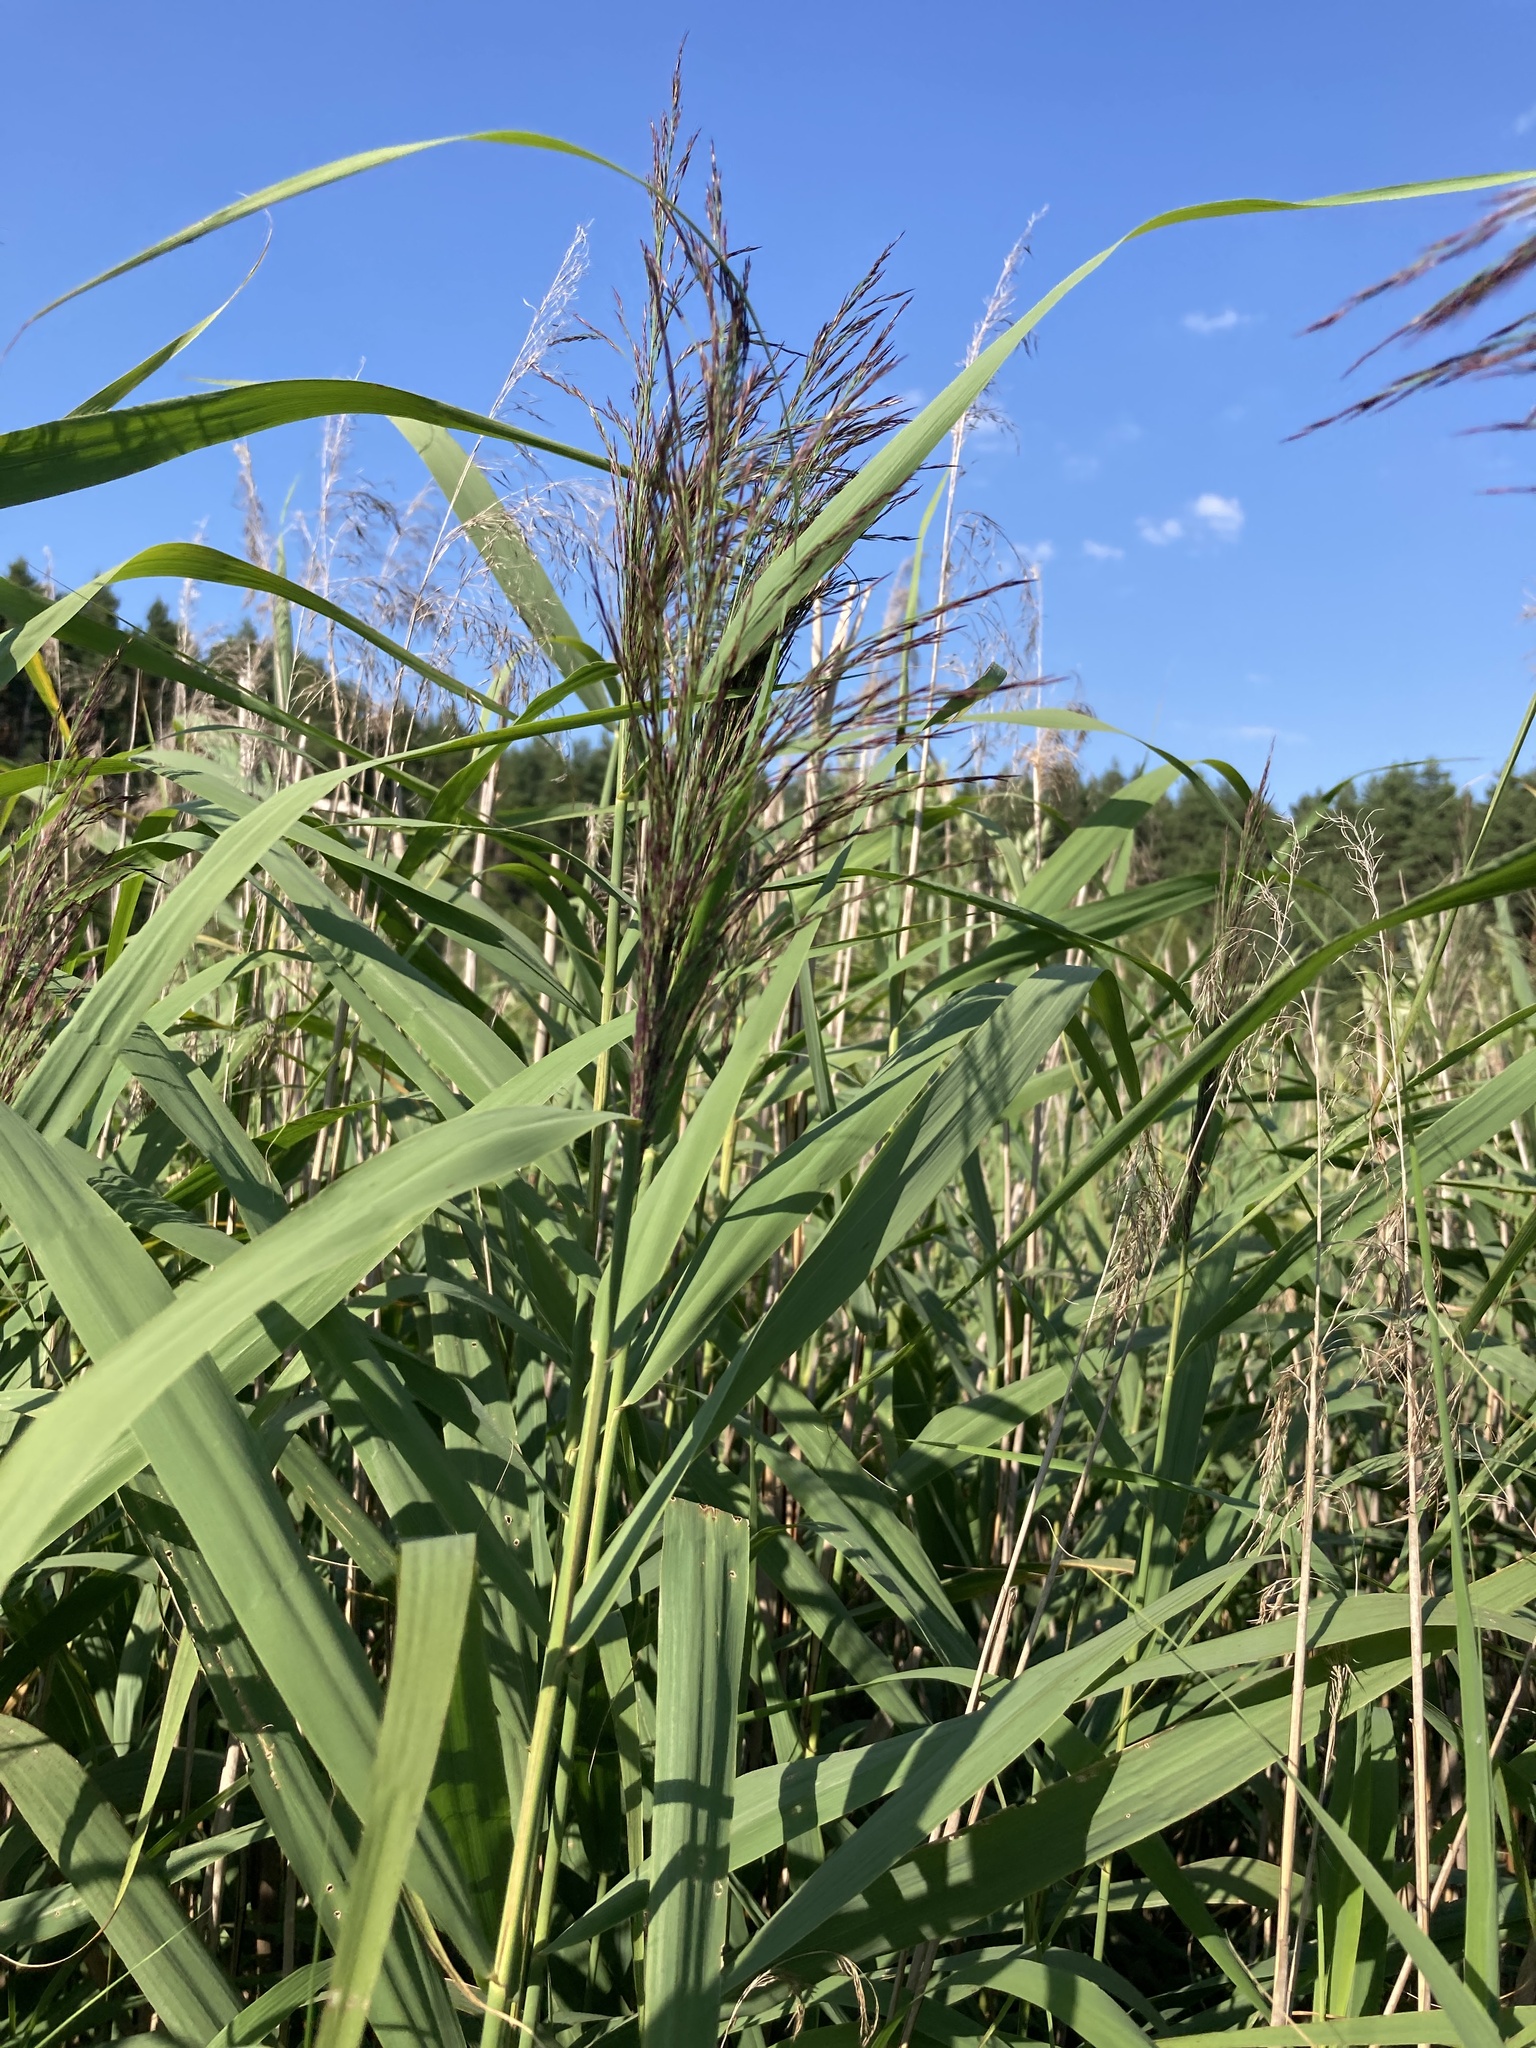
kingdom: Plantae
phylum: Tracheophyta
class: Liliopsida
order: Poales
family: Poaceae
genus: Phragmites
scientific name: Phragmites australis
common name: Common reed
